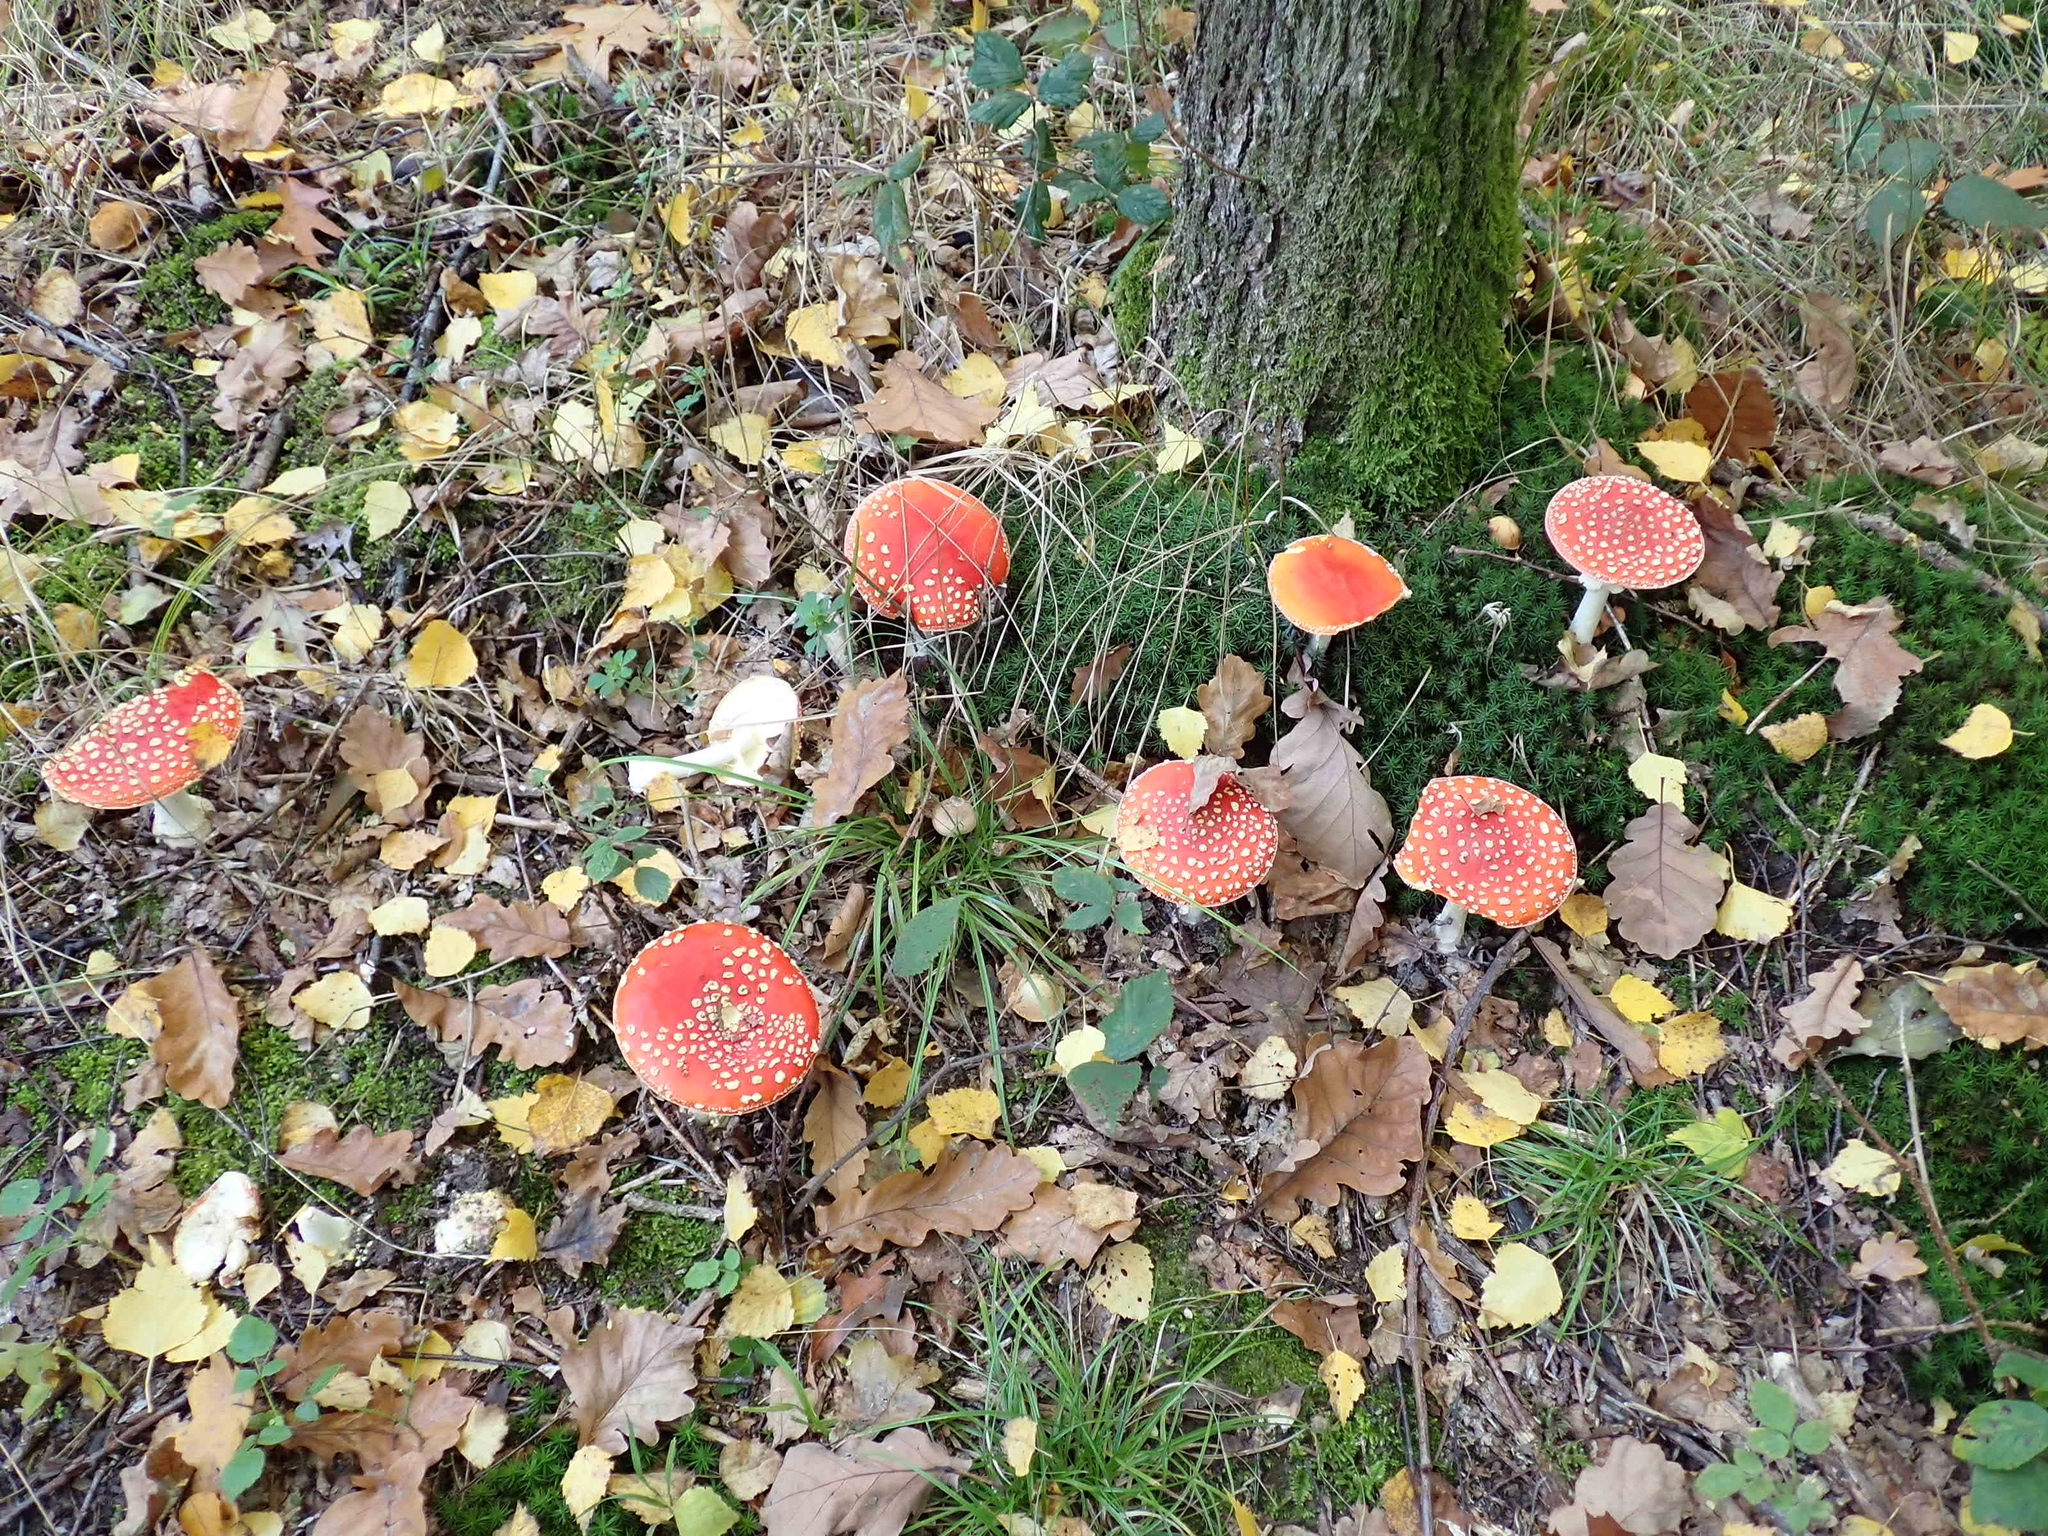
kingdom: Fungi
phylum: Basidiomycota
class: Agaricomycetes
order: Agaricales
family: Amanitaceae
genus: Amanita
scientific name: Amanita muscaria
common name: Fly agaric
